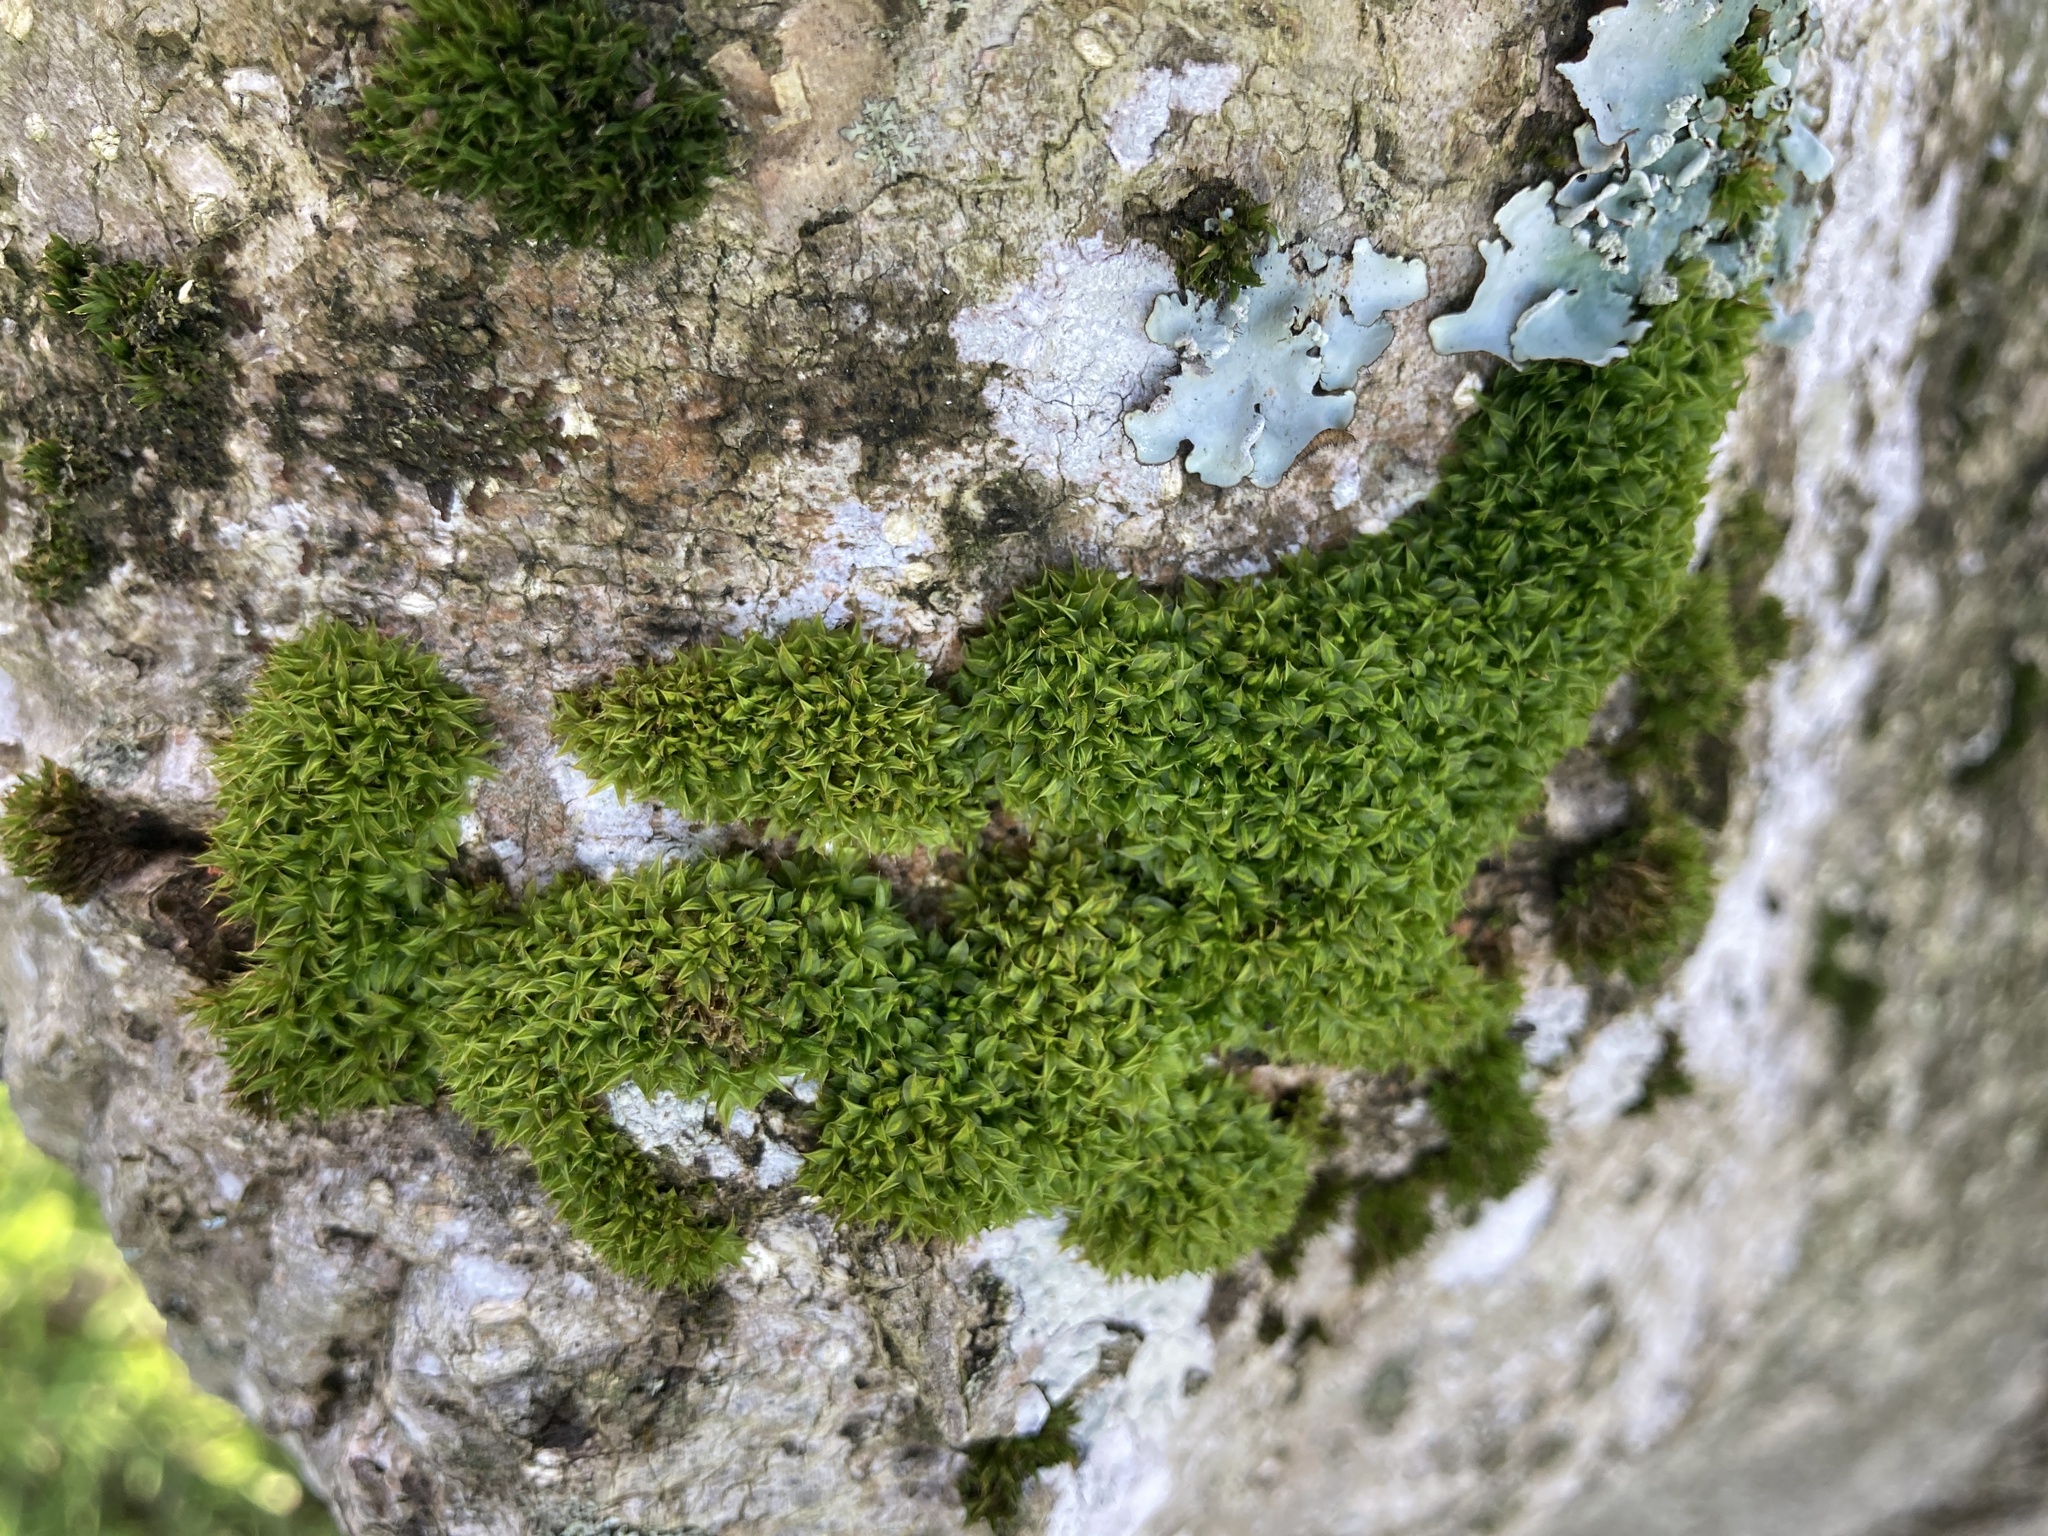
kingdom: Plantae
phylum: Bryophyta
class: Bryopsida
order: Pottiales
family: Pottiaceae
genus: Syntrichia
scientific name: Syntrichia papillosa
